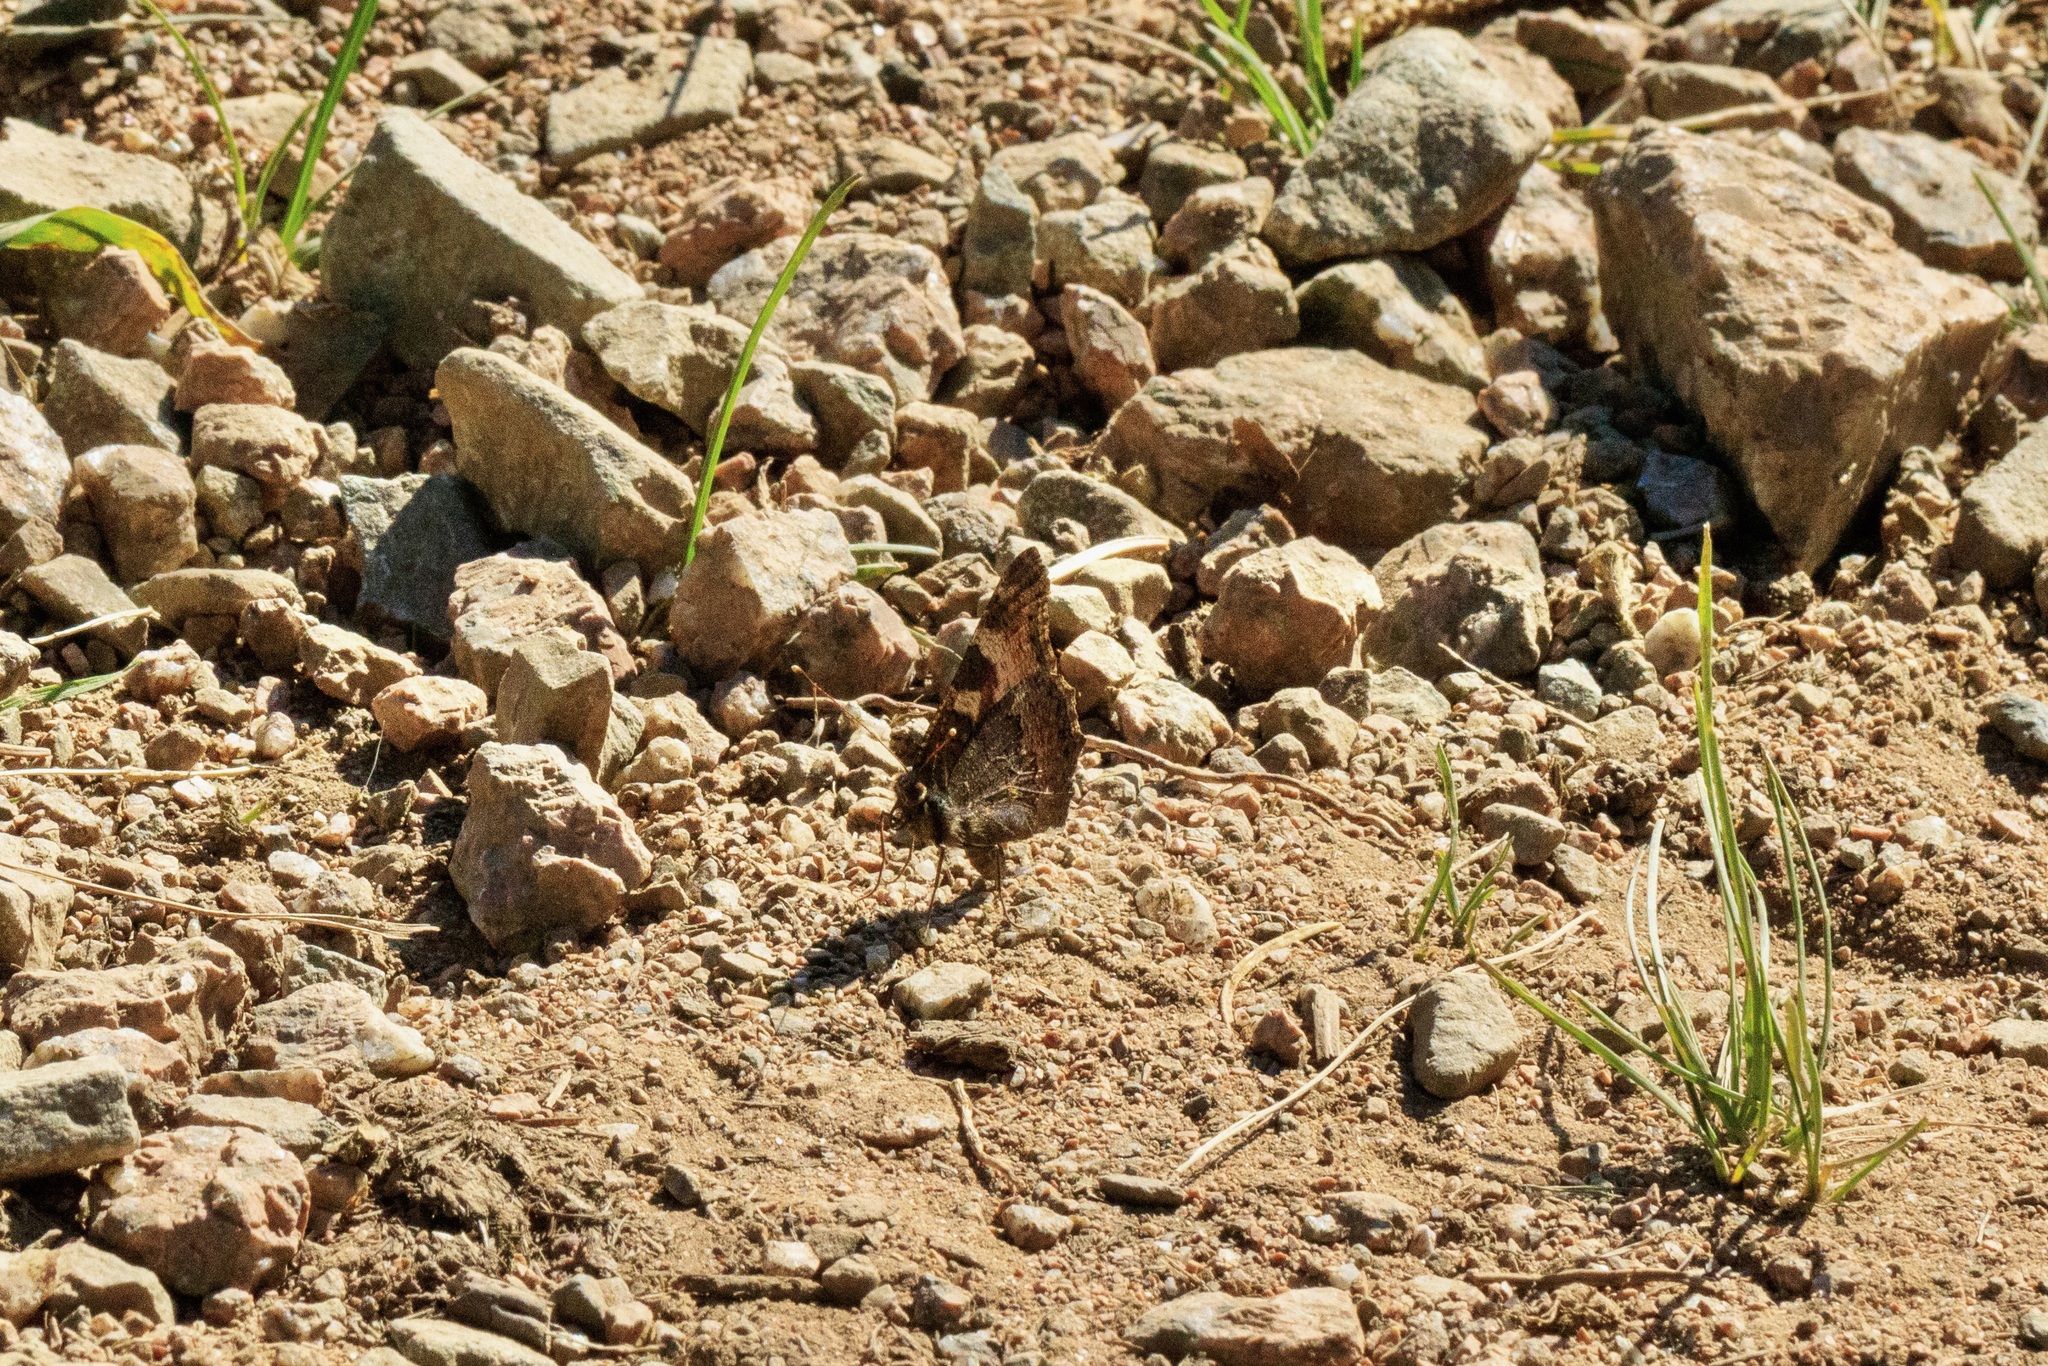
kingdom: Animalia
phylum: Arthropoda
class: Insecta
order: Lepidoptera
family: Nymphalidae
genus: Aglais
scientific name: Aglais urticae
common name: Small tortoiseshell
